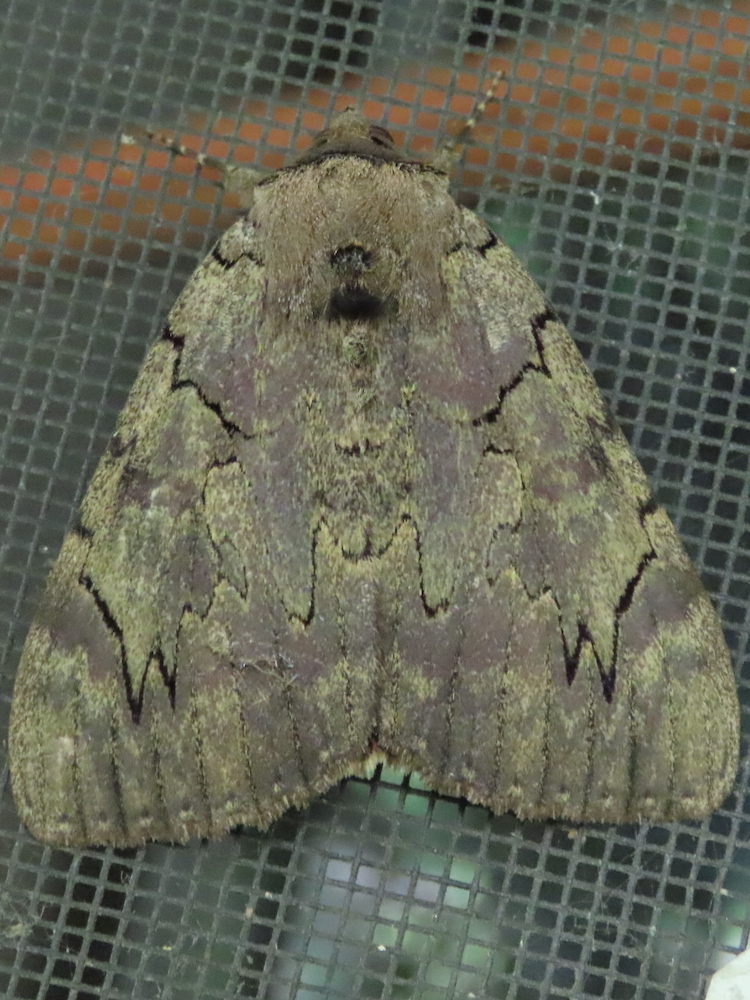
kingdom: Animalia
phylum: Arthropoda
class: Insecta
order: Lepidoptera
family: Erebidae
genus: Catocala
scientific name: Catocala cara
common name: Darling underwing
